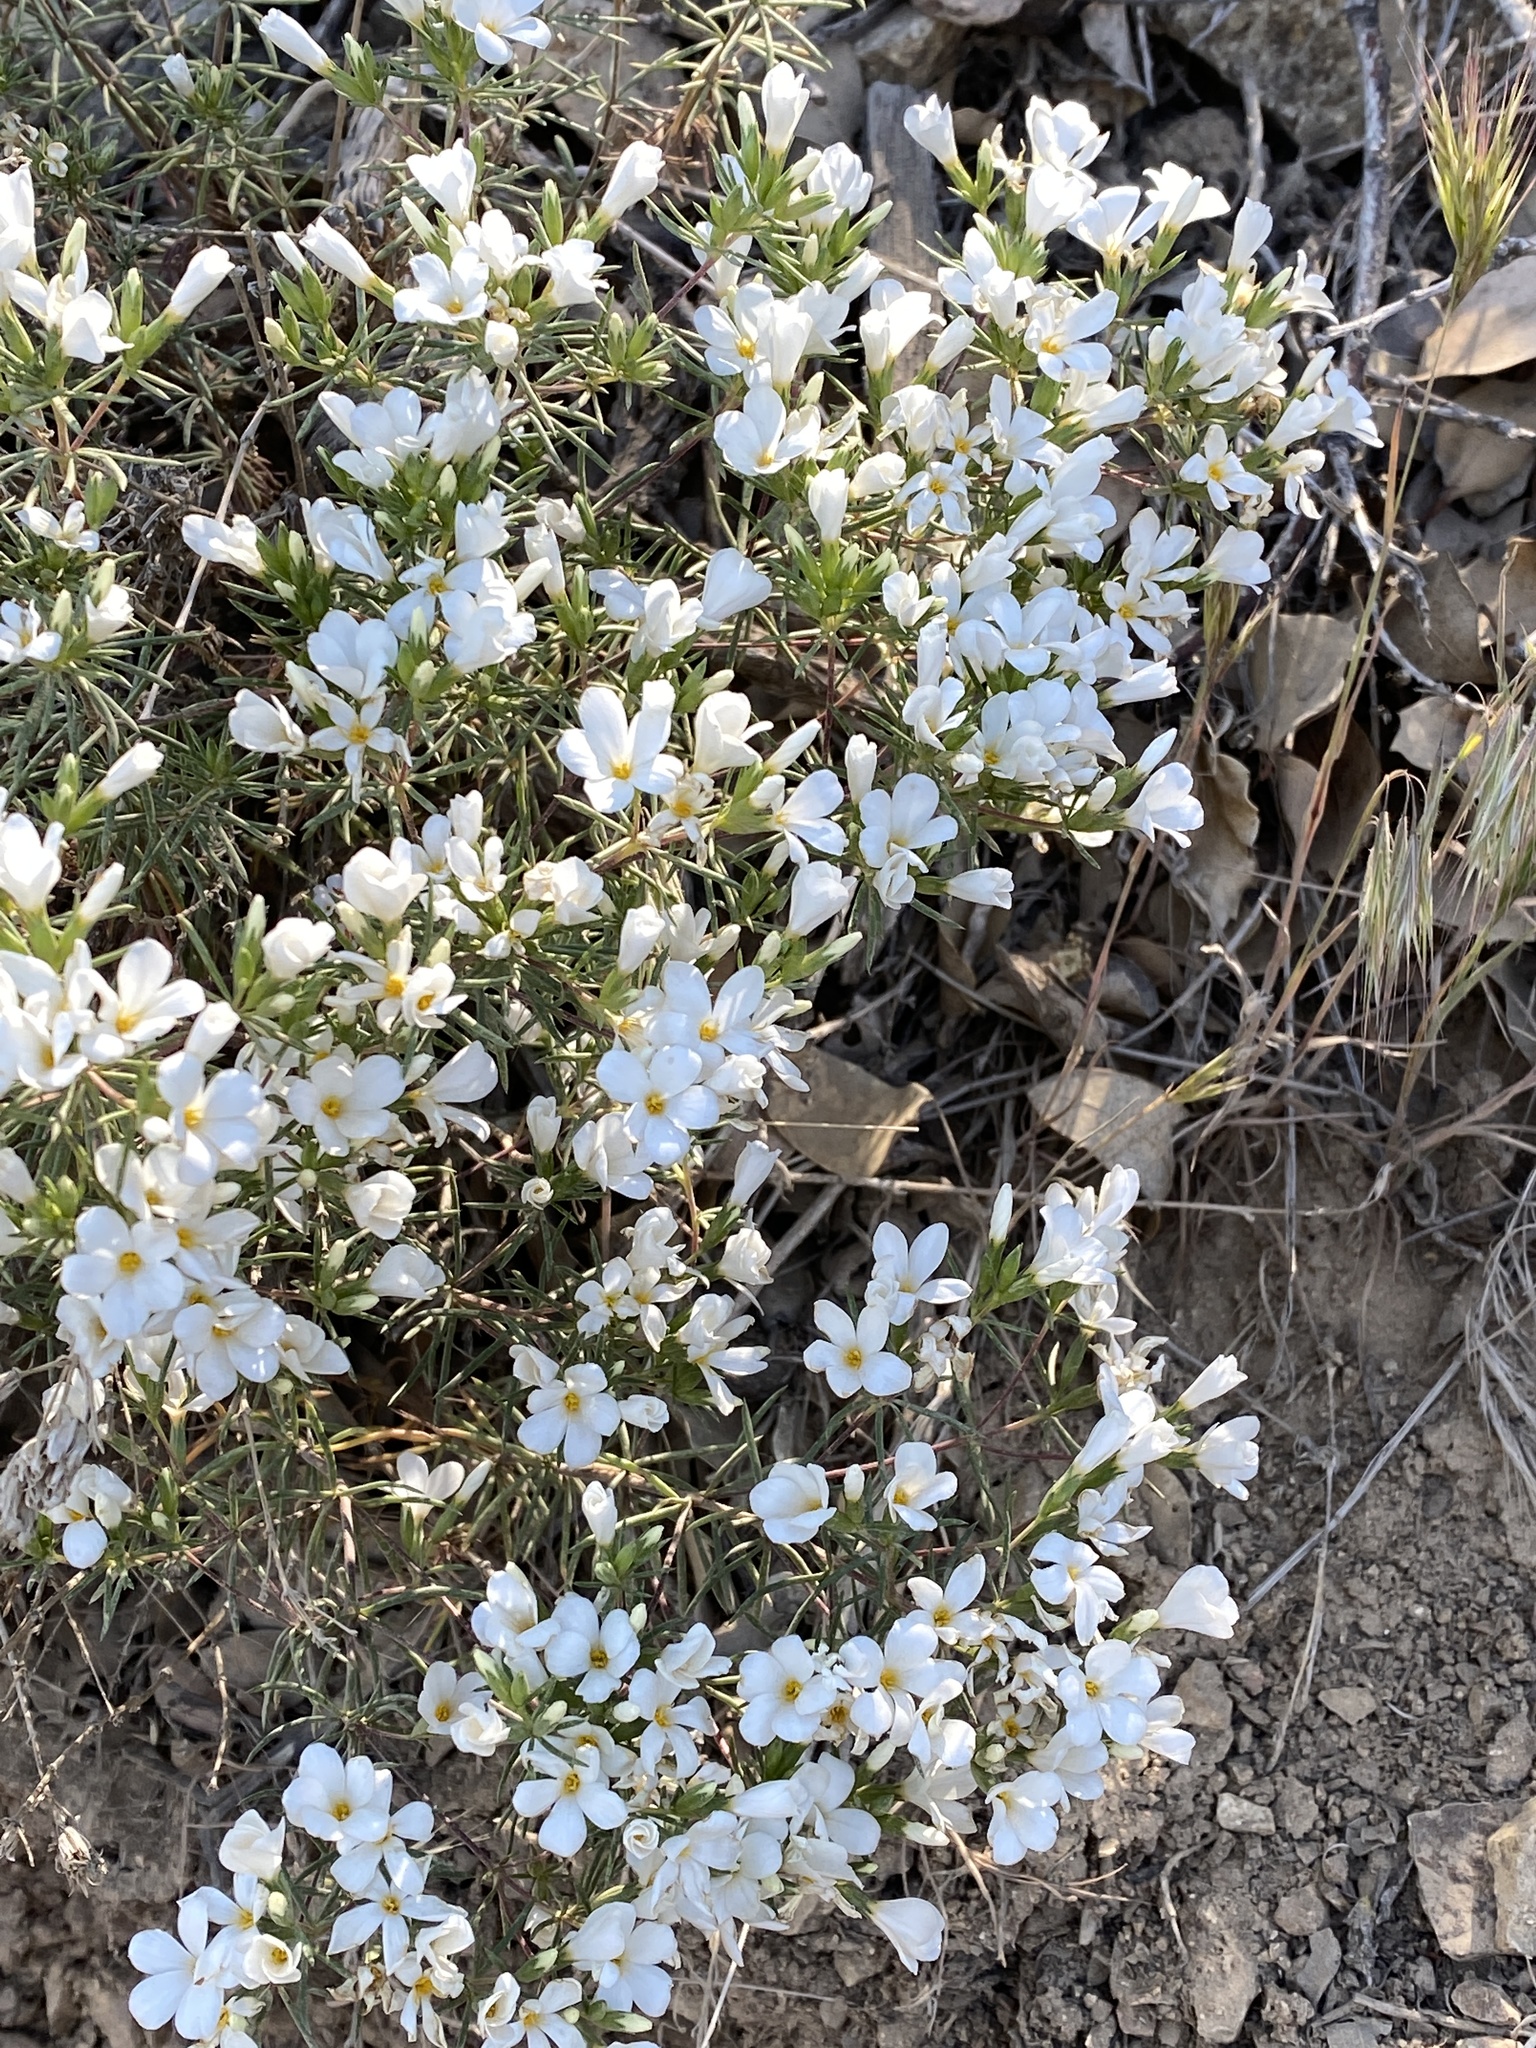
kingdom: Plantae
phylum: Tracheophyta
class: Magnoliopsida
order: Ericales
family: Polemoniaceae
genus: Leptosiphon
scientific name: Leptosiphon floribundum
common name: Many-flower linanthus
